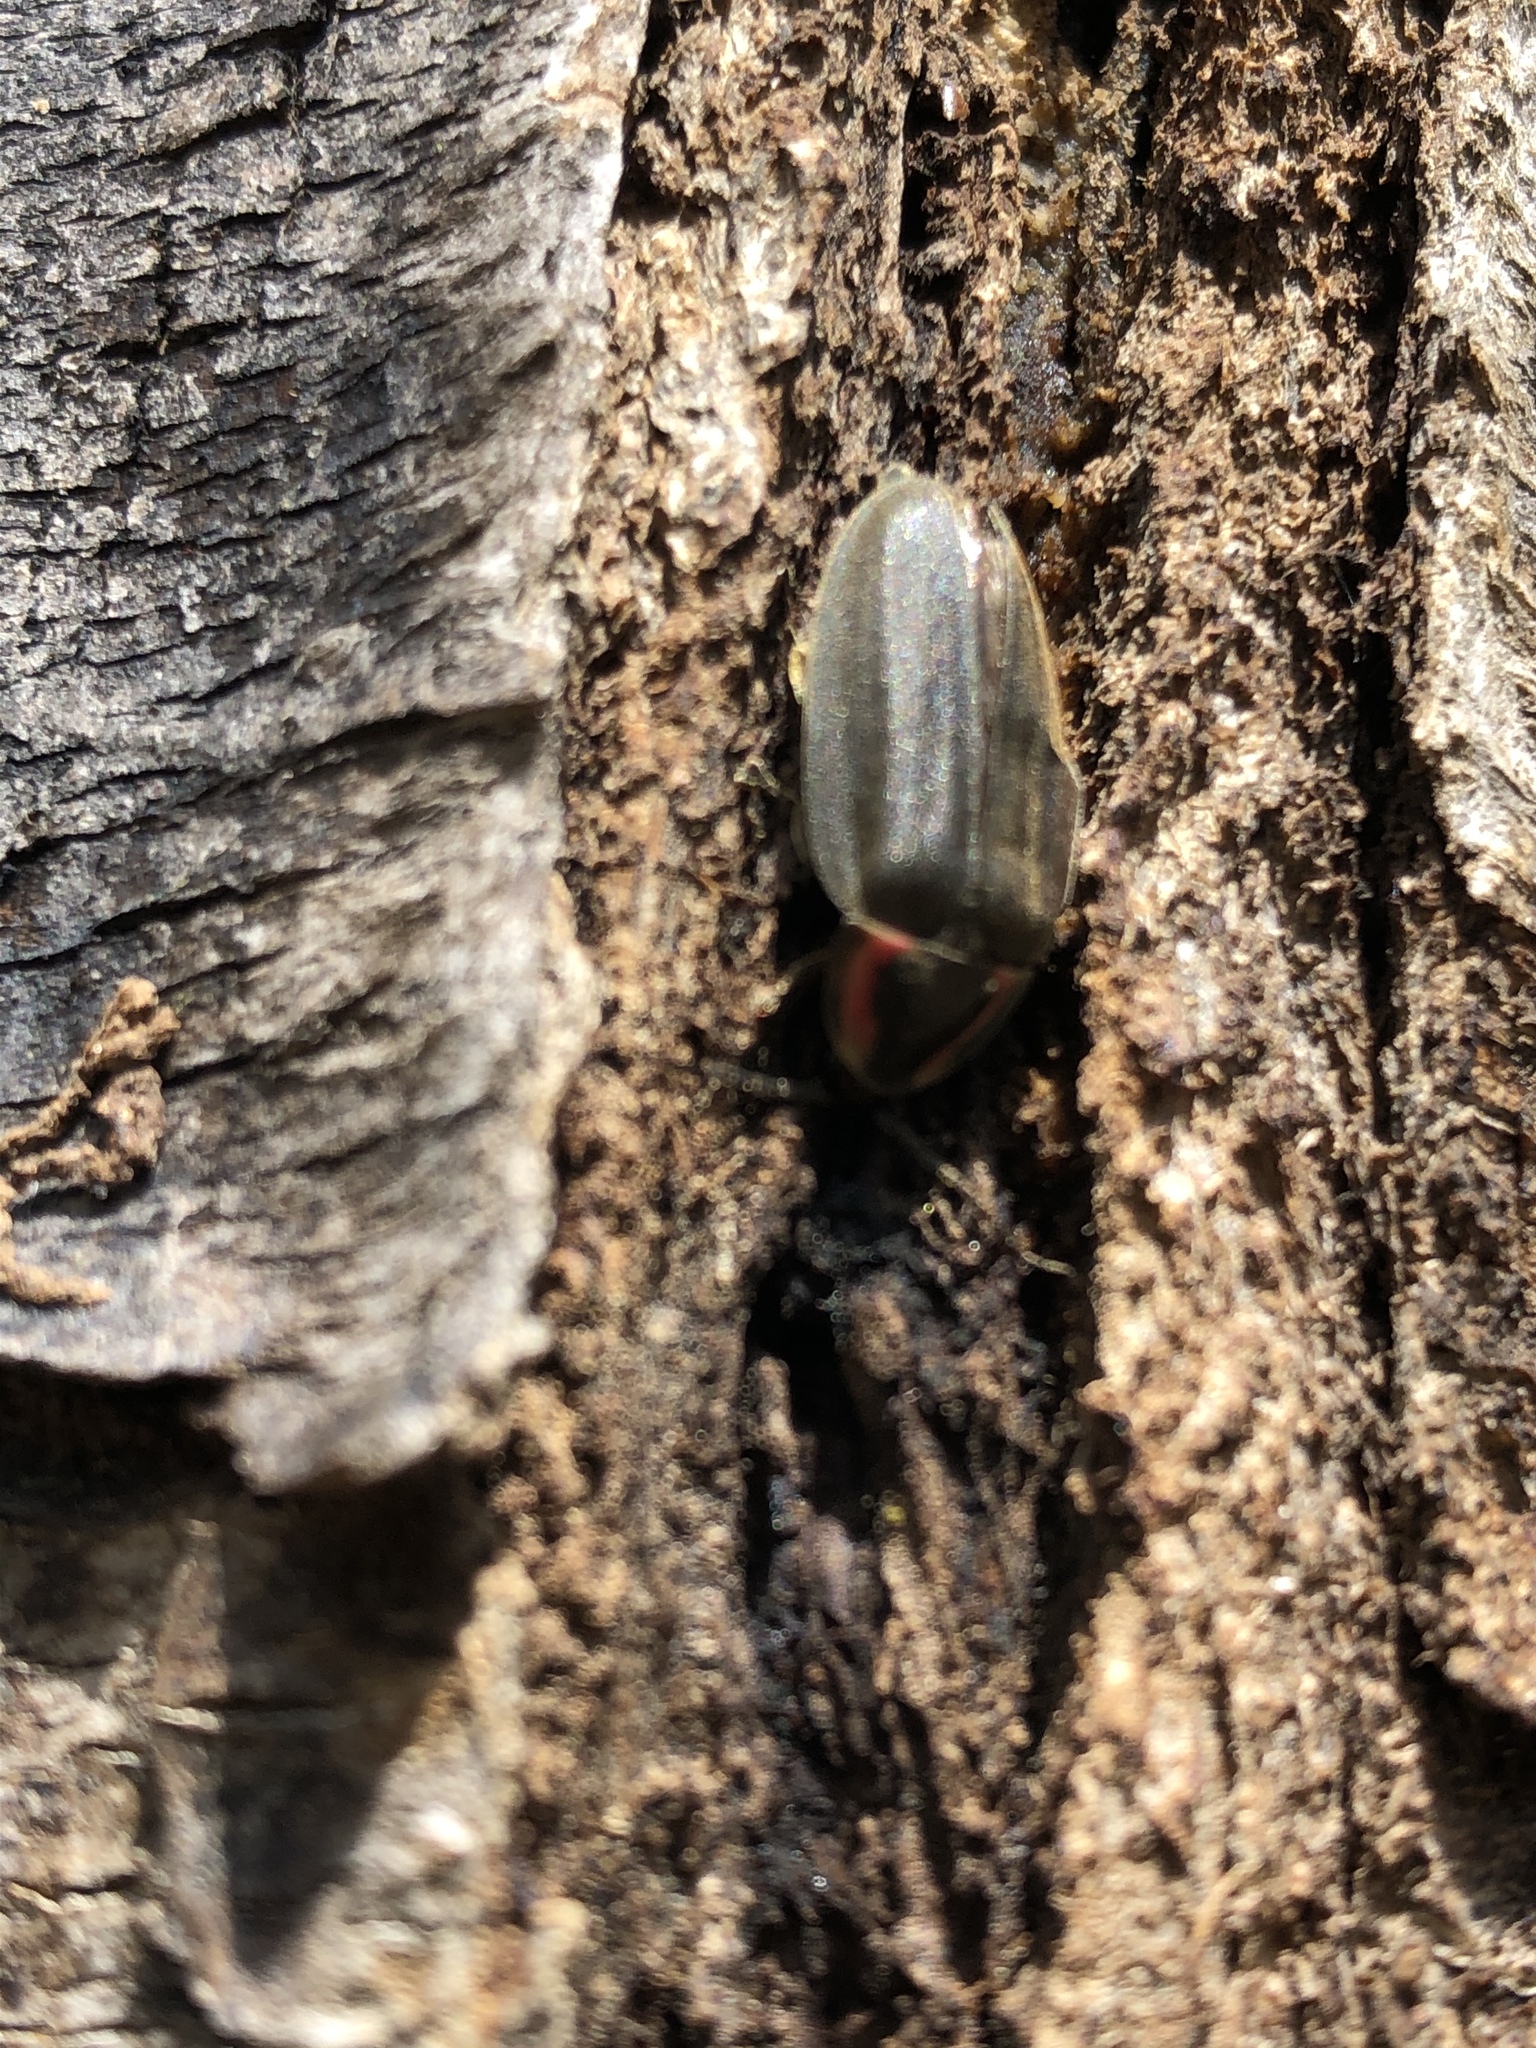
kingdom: Animalia
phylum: Arthropoda
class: Insecta
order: Coleoptera
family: Lampyridae
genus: Photinus
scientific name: Photinus corrusca
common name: Winter firefly
